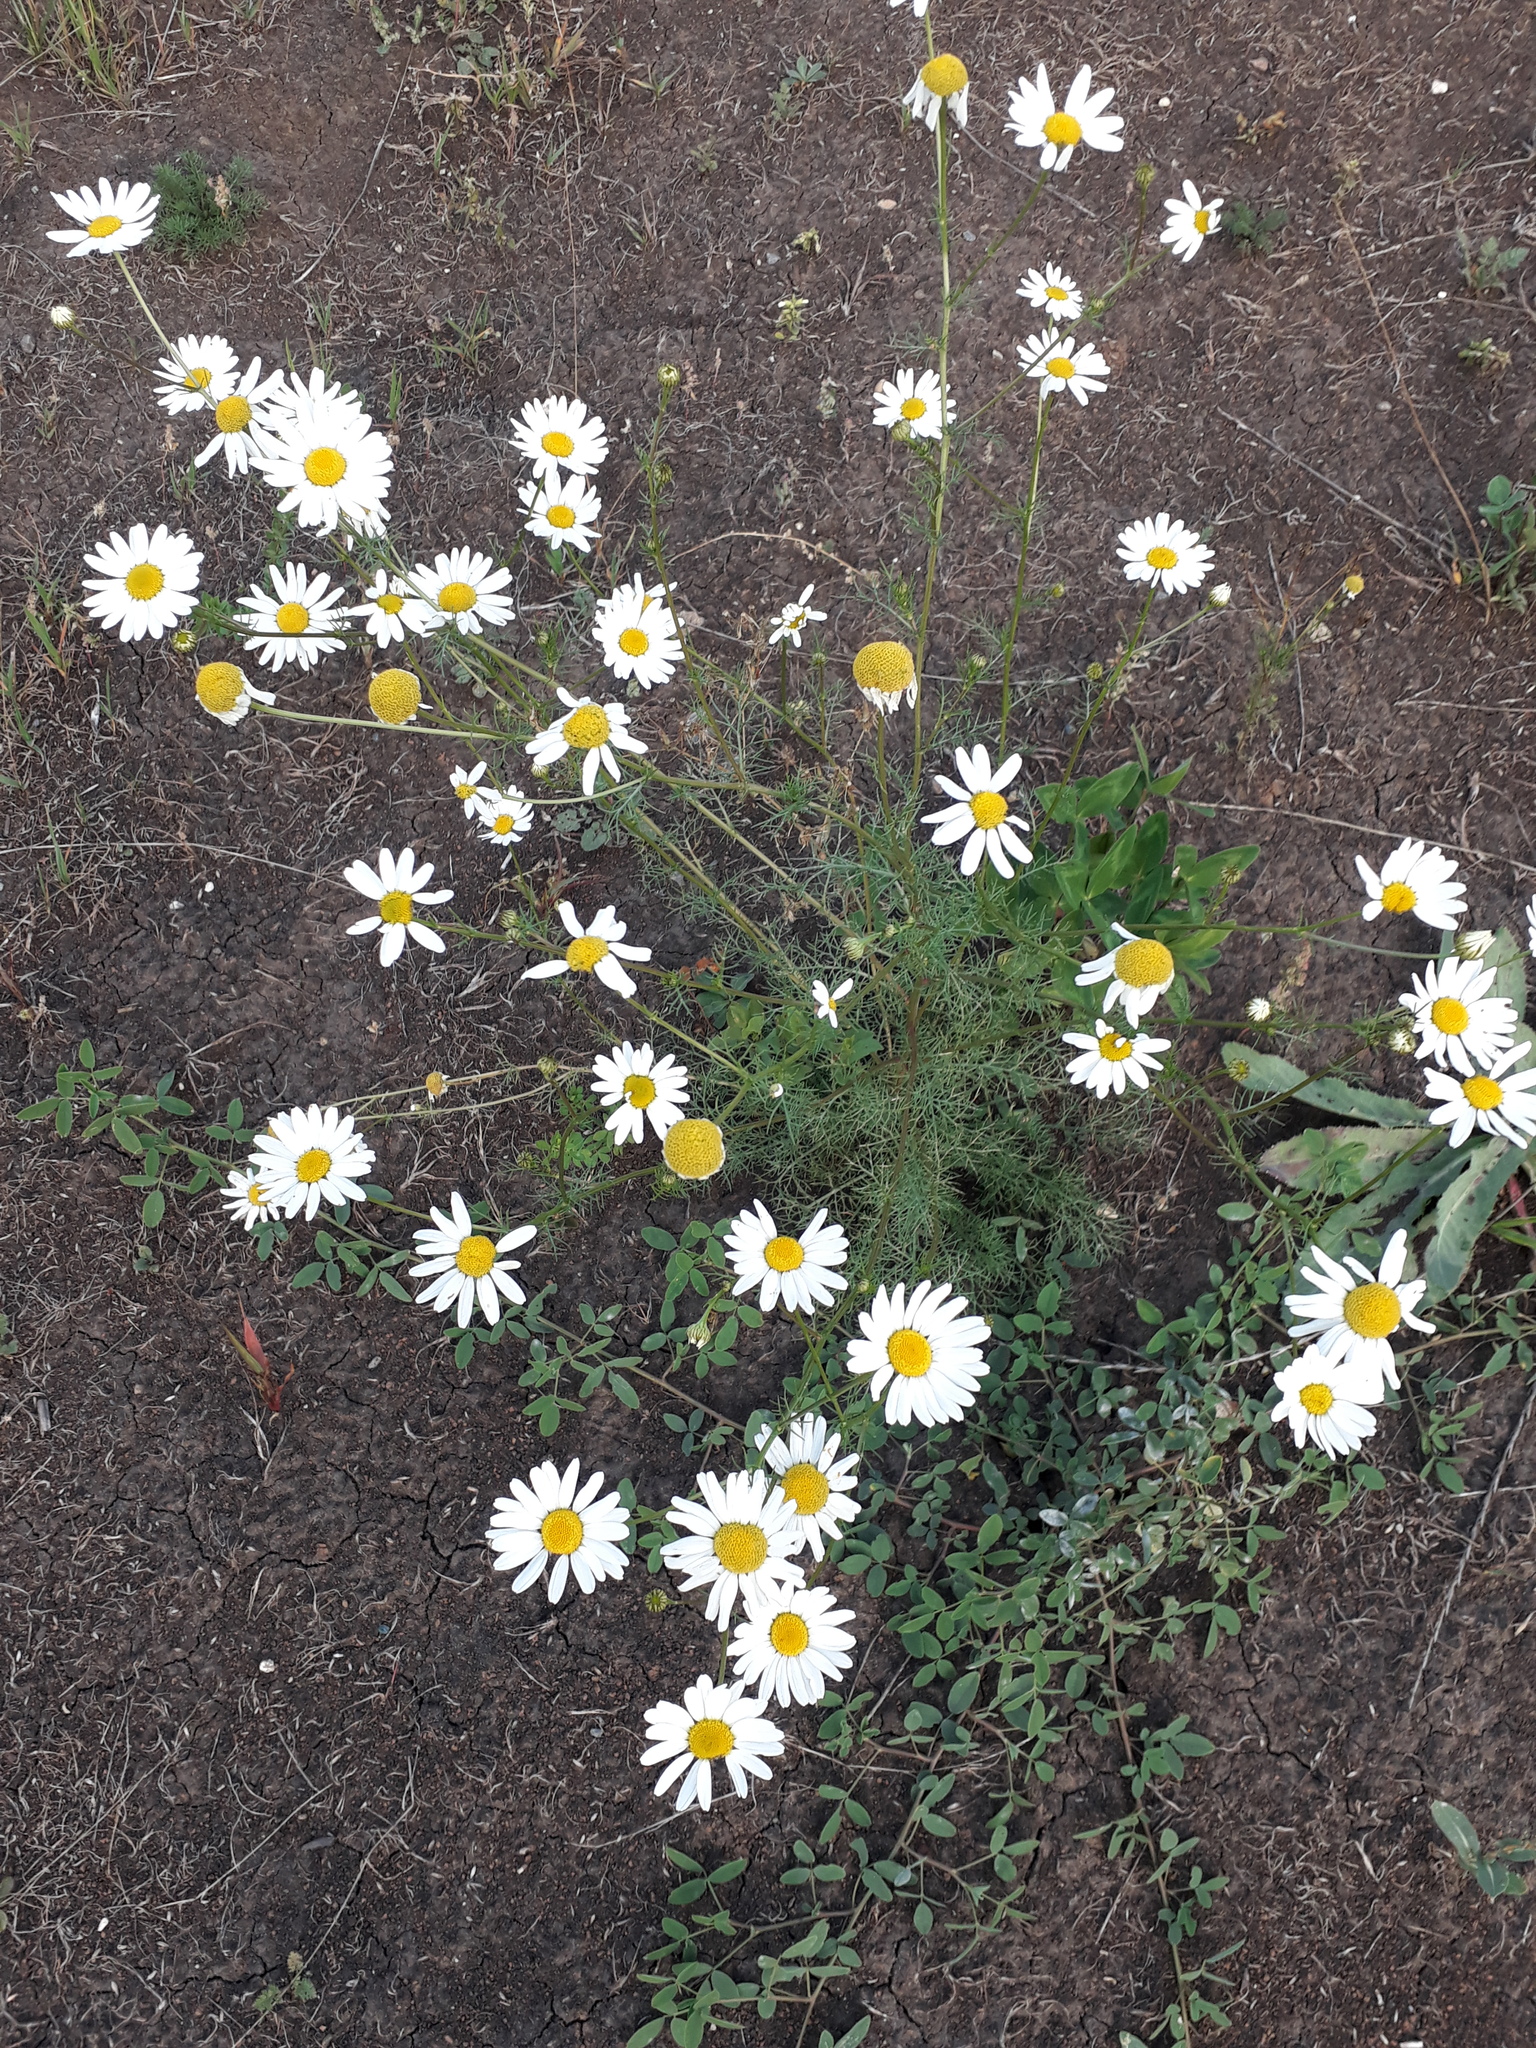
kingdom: Plantae
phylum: Tracheophyta
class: Magnoliopsida
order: Asterales
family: Asteraceae
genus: Tripleurospermum
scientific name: Tripleurospermum inodorum
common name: Scentless mayweed
